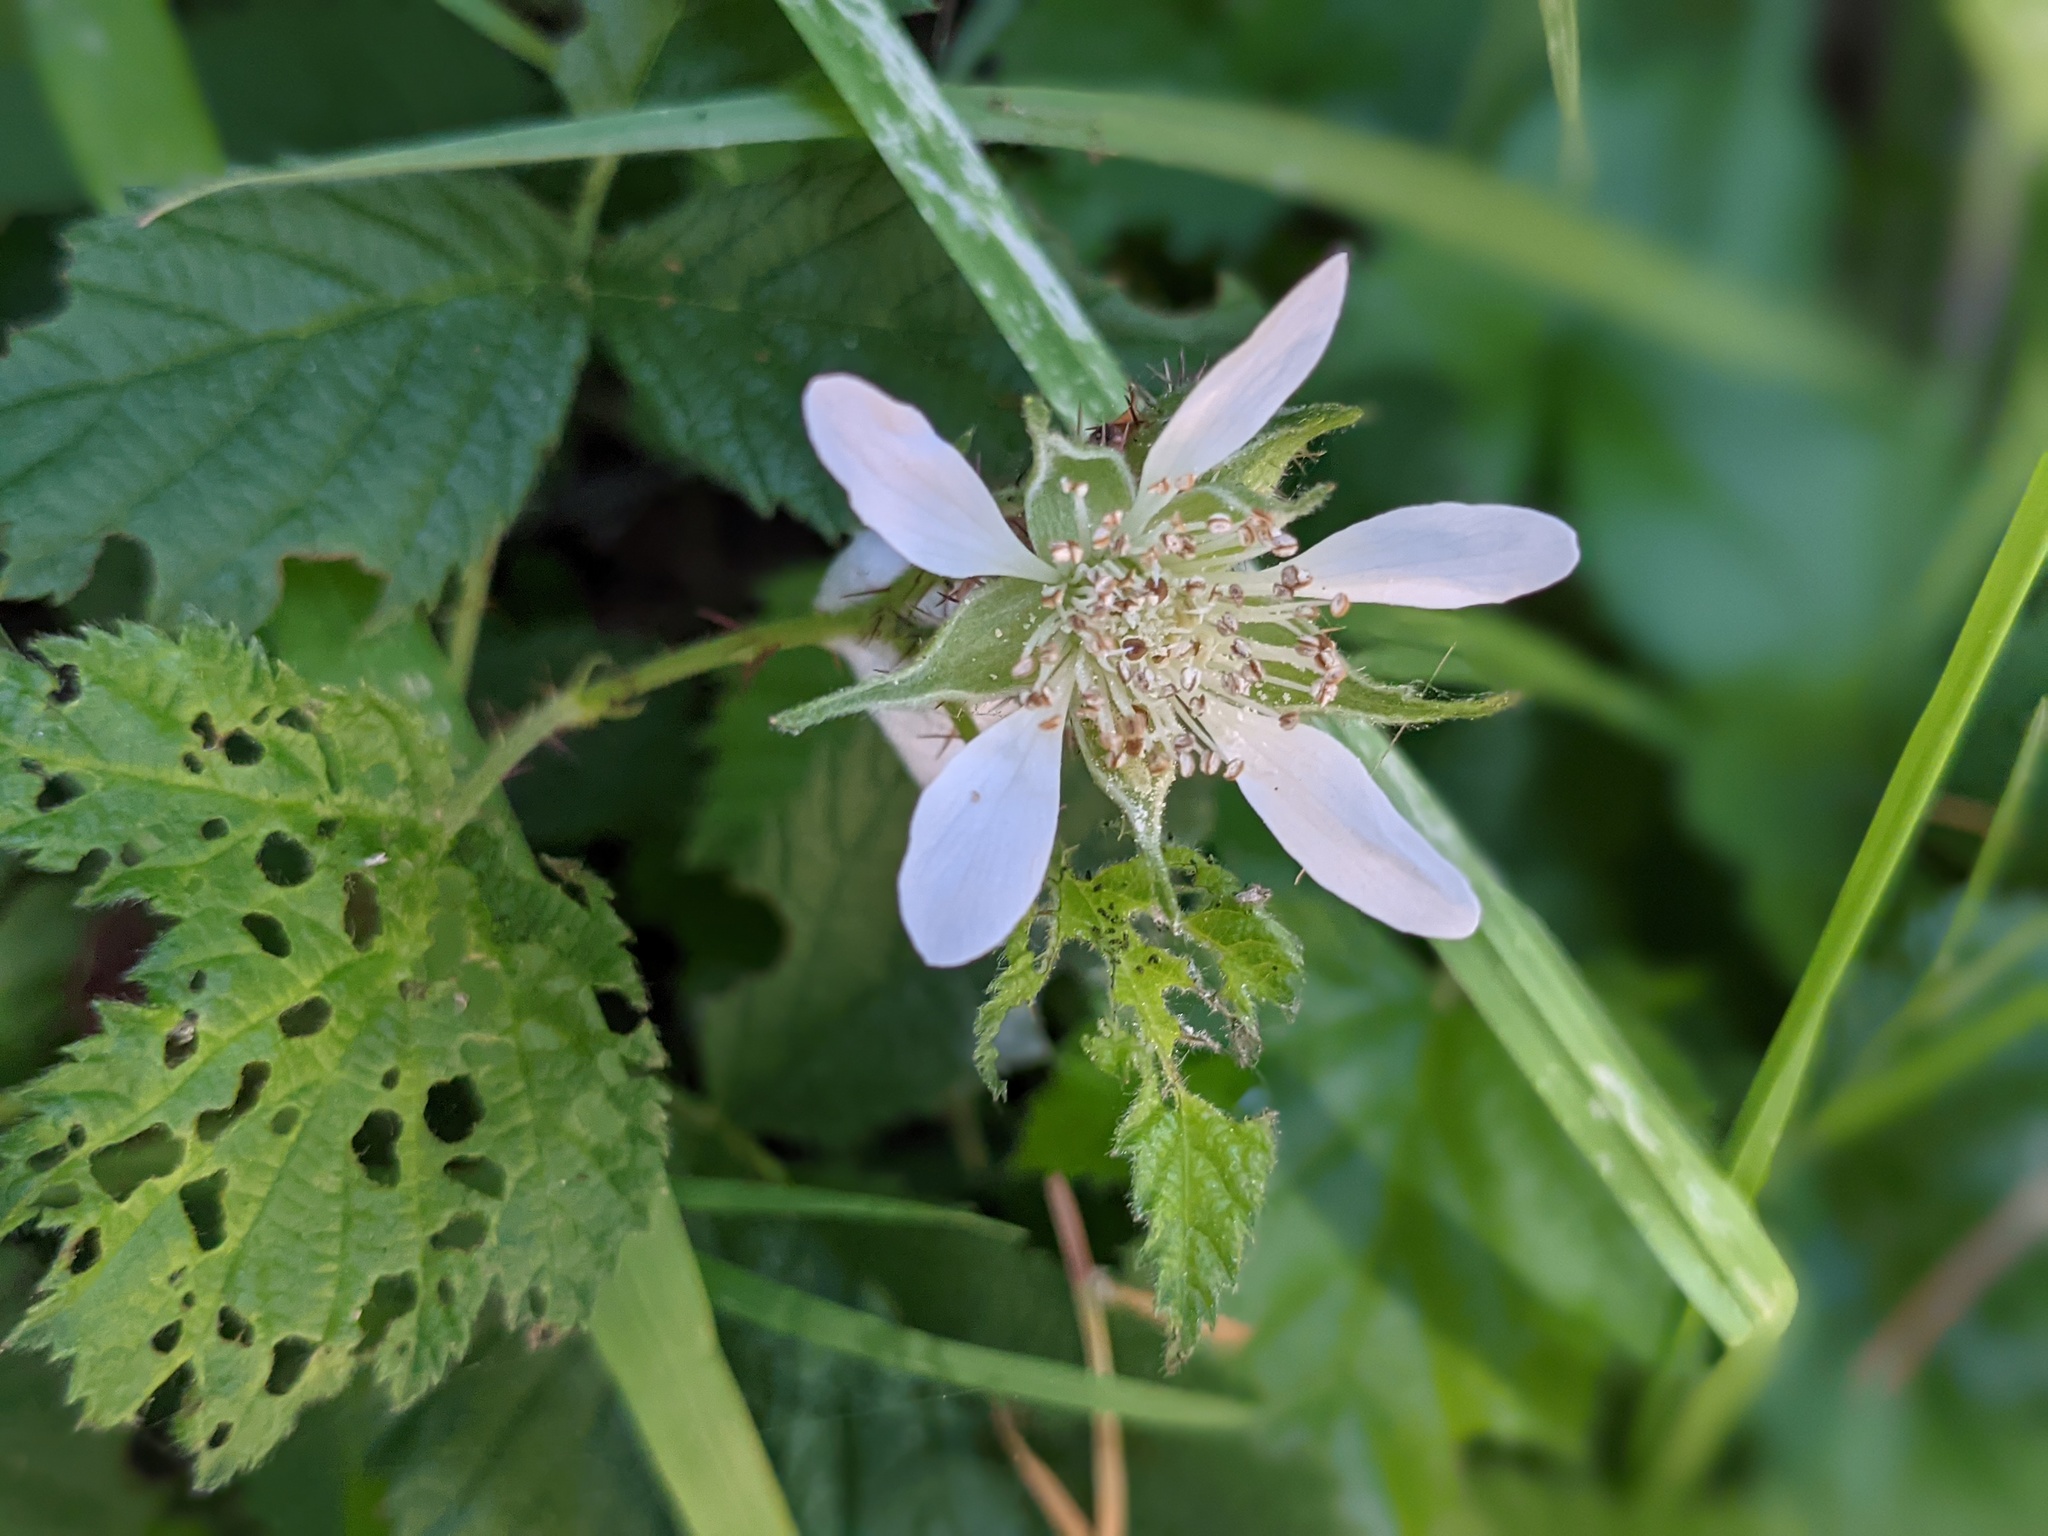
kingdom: Plantae
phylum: Tracheophyta
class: Magnoliopsida
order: Rosales
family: Rosaceae
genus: Rubus
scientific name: Rubus ursinus
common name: Pacific blackberry
